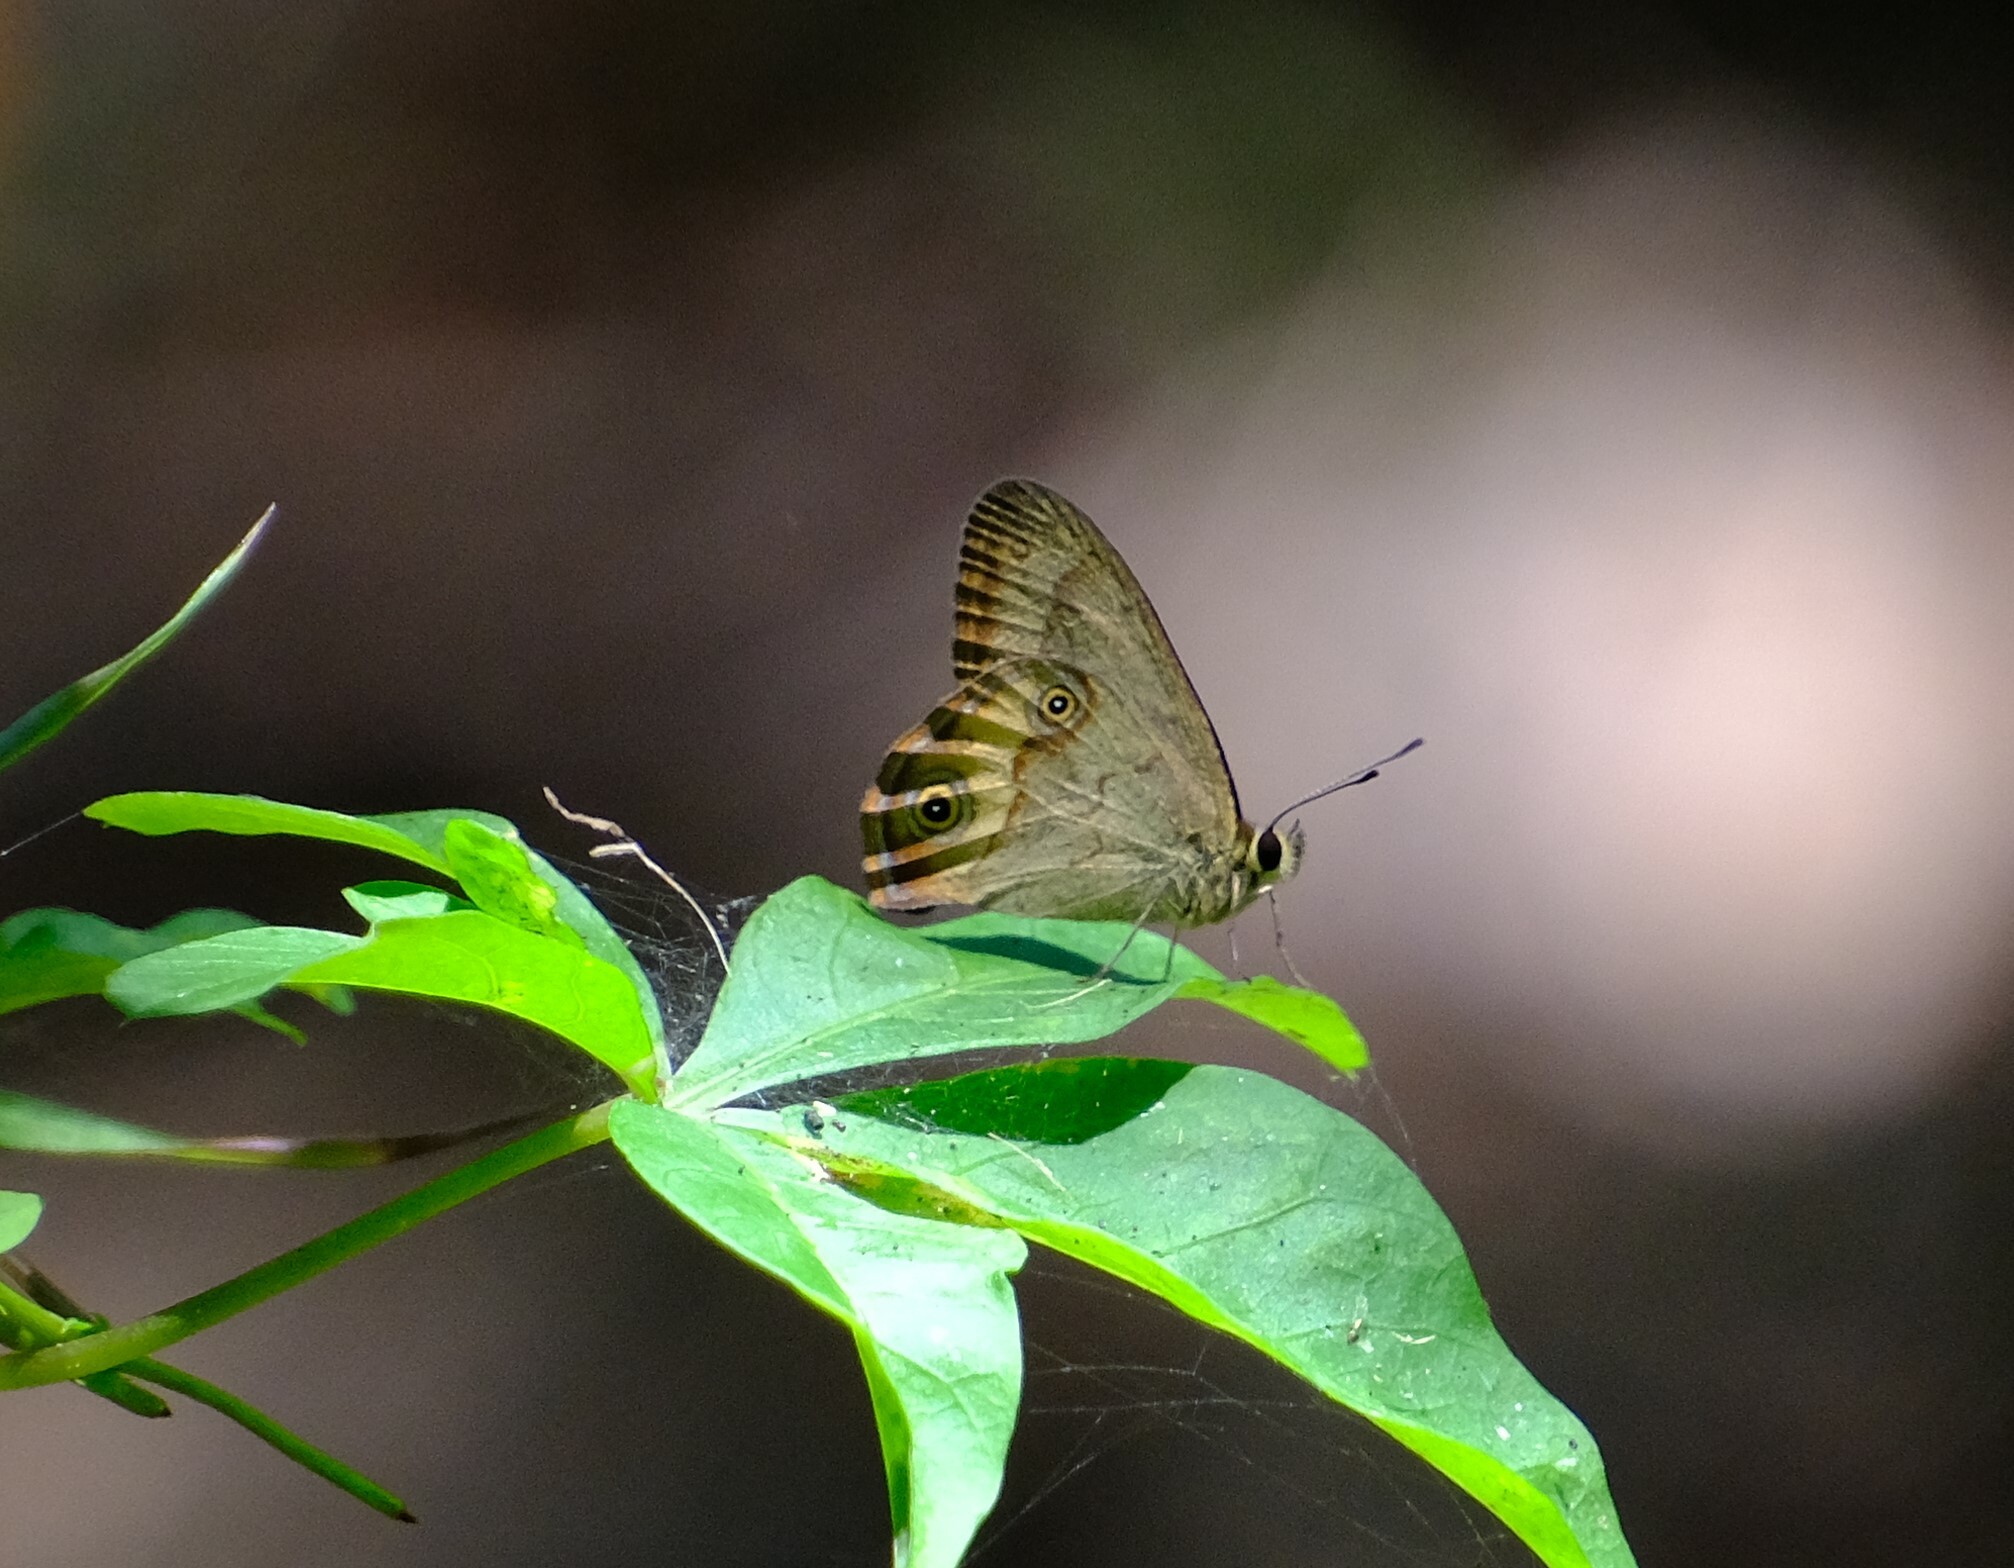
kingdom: Animalia
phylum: Arthropoda
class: Insecta
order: Lepidoptera
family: Nymphalidae
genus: Hypocysta
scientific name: Hypocysta metirius
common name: Brown ringlet
